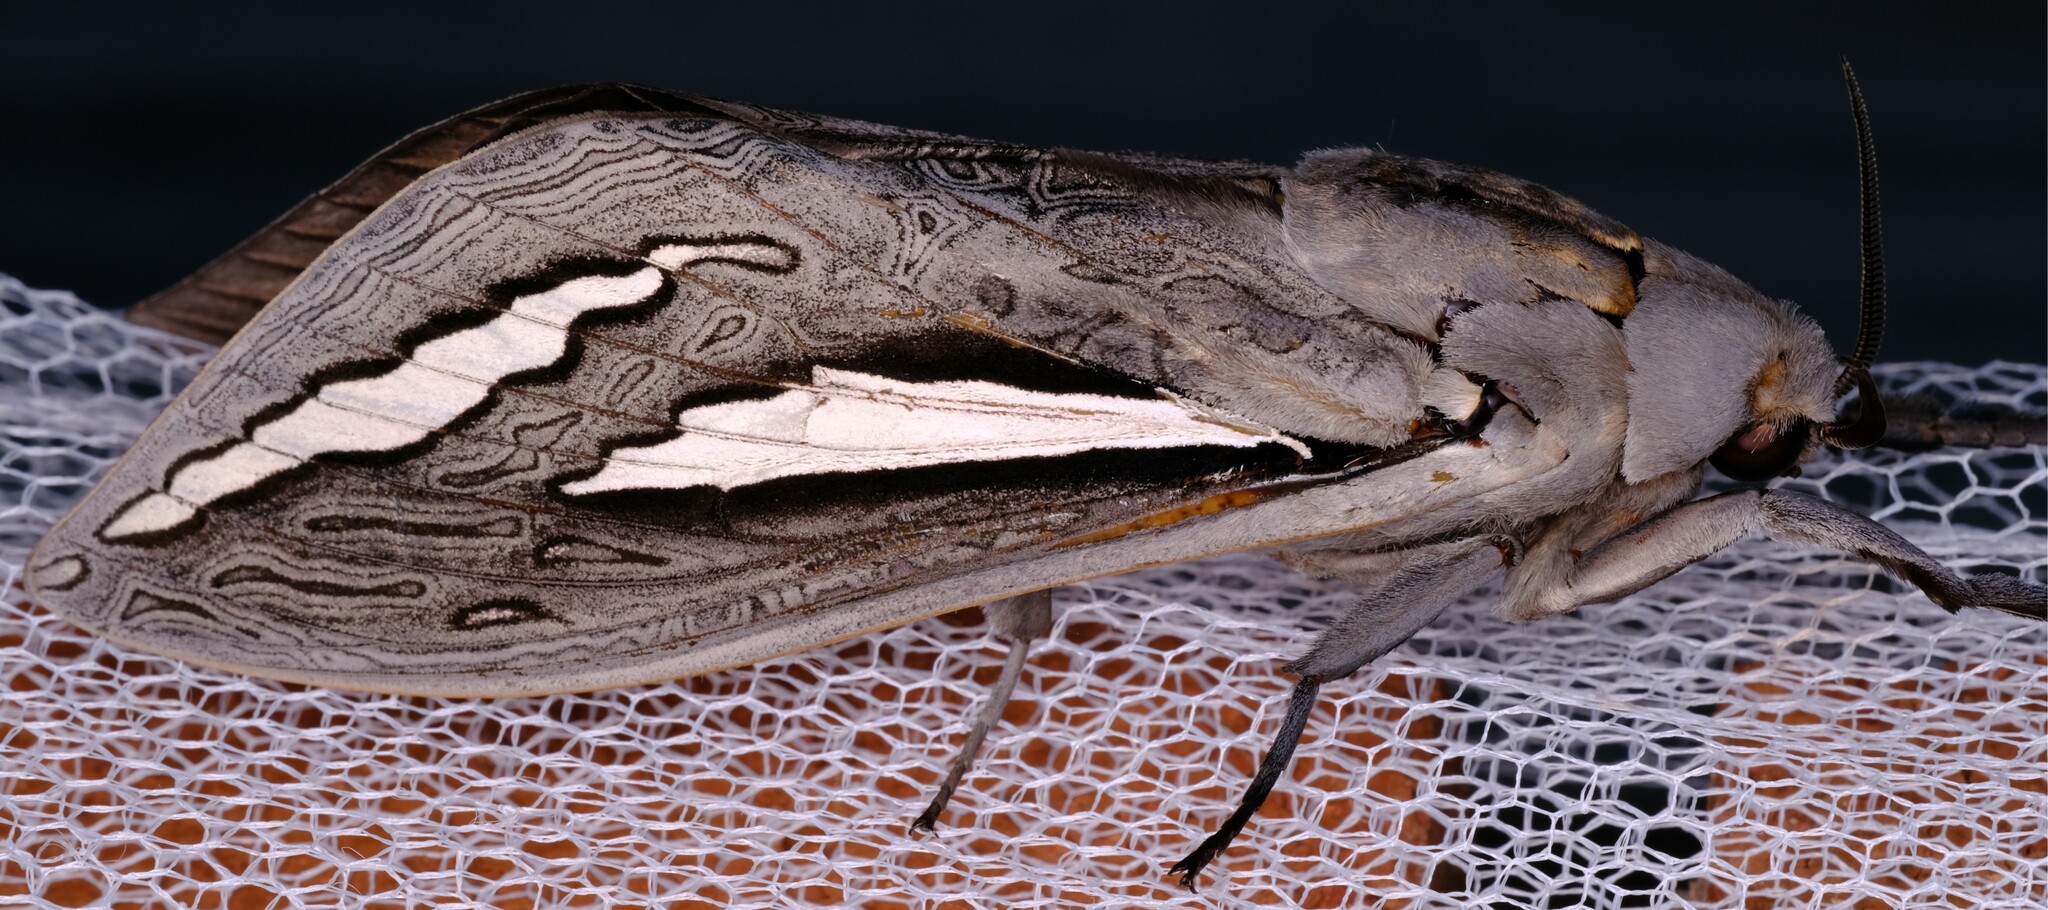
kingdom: Animalia
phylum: Arthropoda
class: Insecta
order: Lepidoptera
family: Hepialidae
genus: Abantiades
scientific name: Abantiades magnificus
